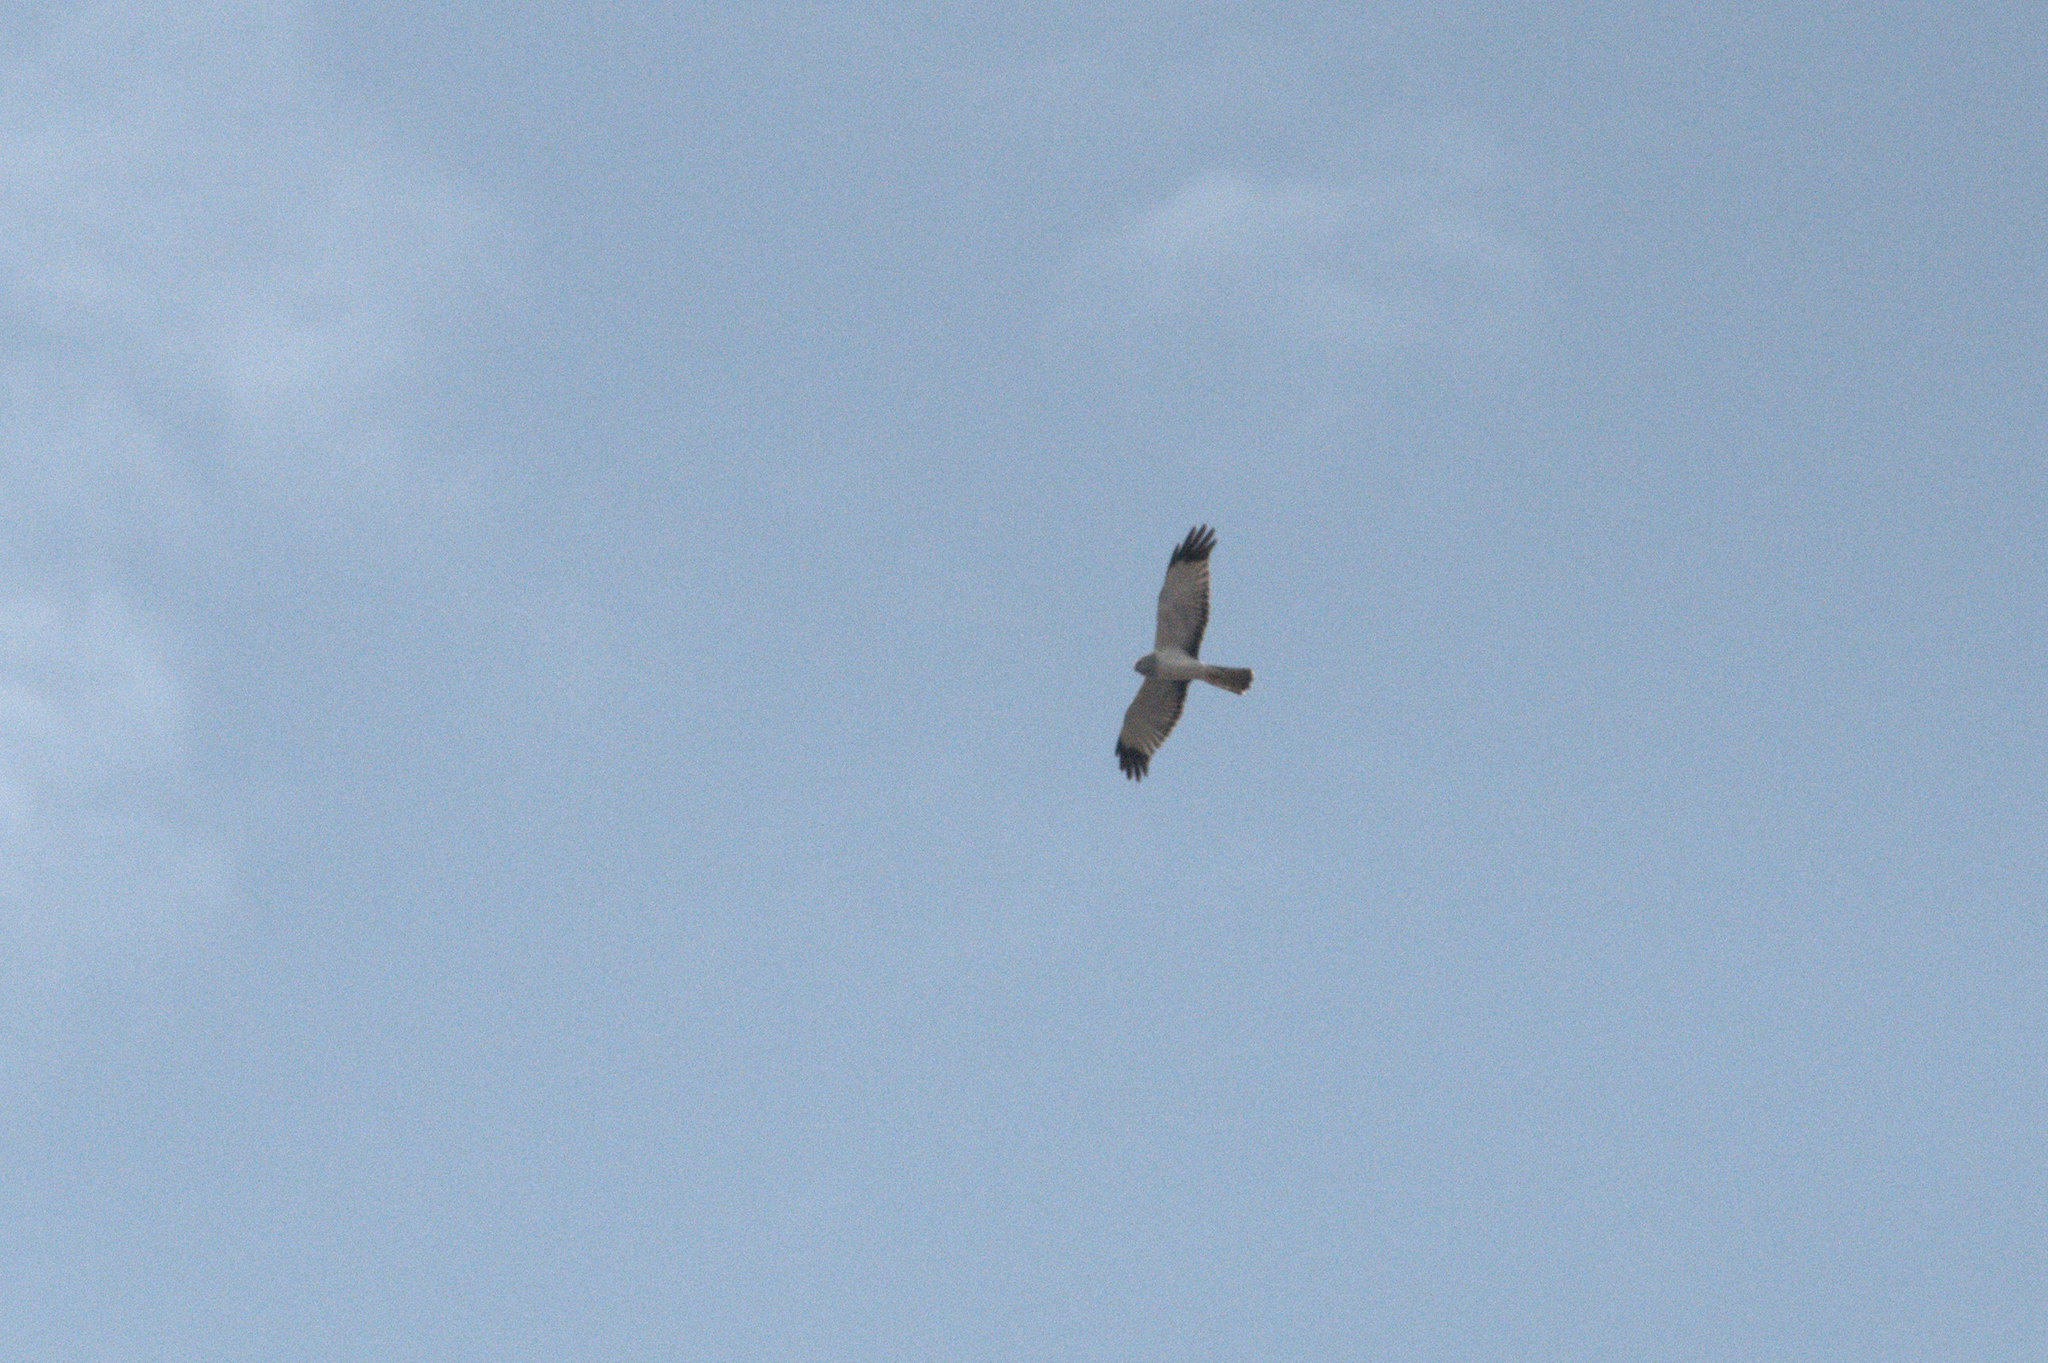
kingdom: Animalia
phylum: Chordata
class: Aves
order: Accipitriformes
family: Accipitridae
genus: Circus
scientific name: Circus cyaneus
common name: Hen harrier
